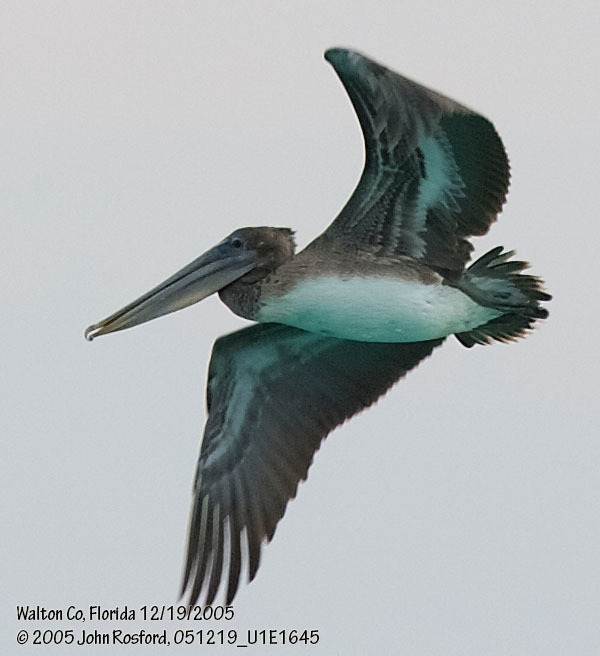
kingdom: Animalia
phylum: Chordata
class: Aves
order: Pelecaniformes
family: Pelecanidae
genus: Pelecanus
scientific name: Pelecanus occidentalis
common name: Brown pelican
